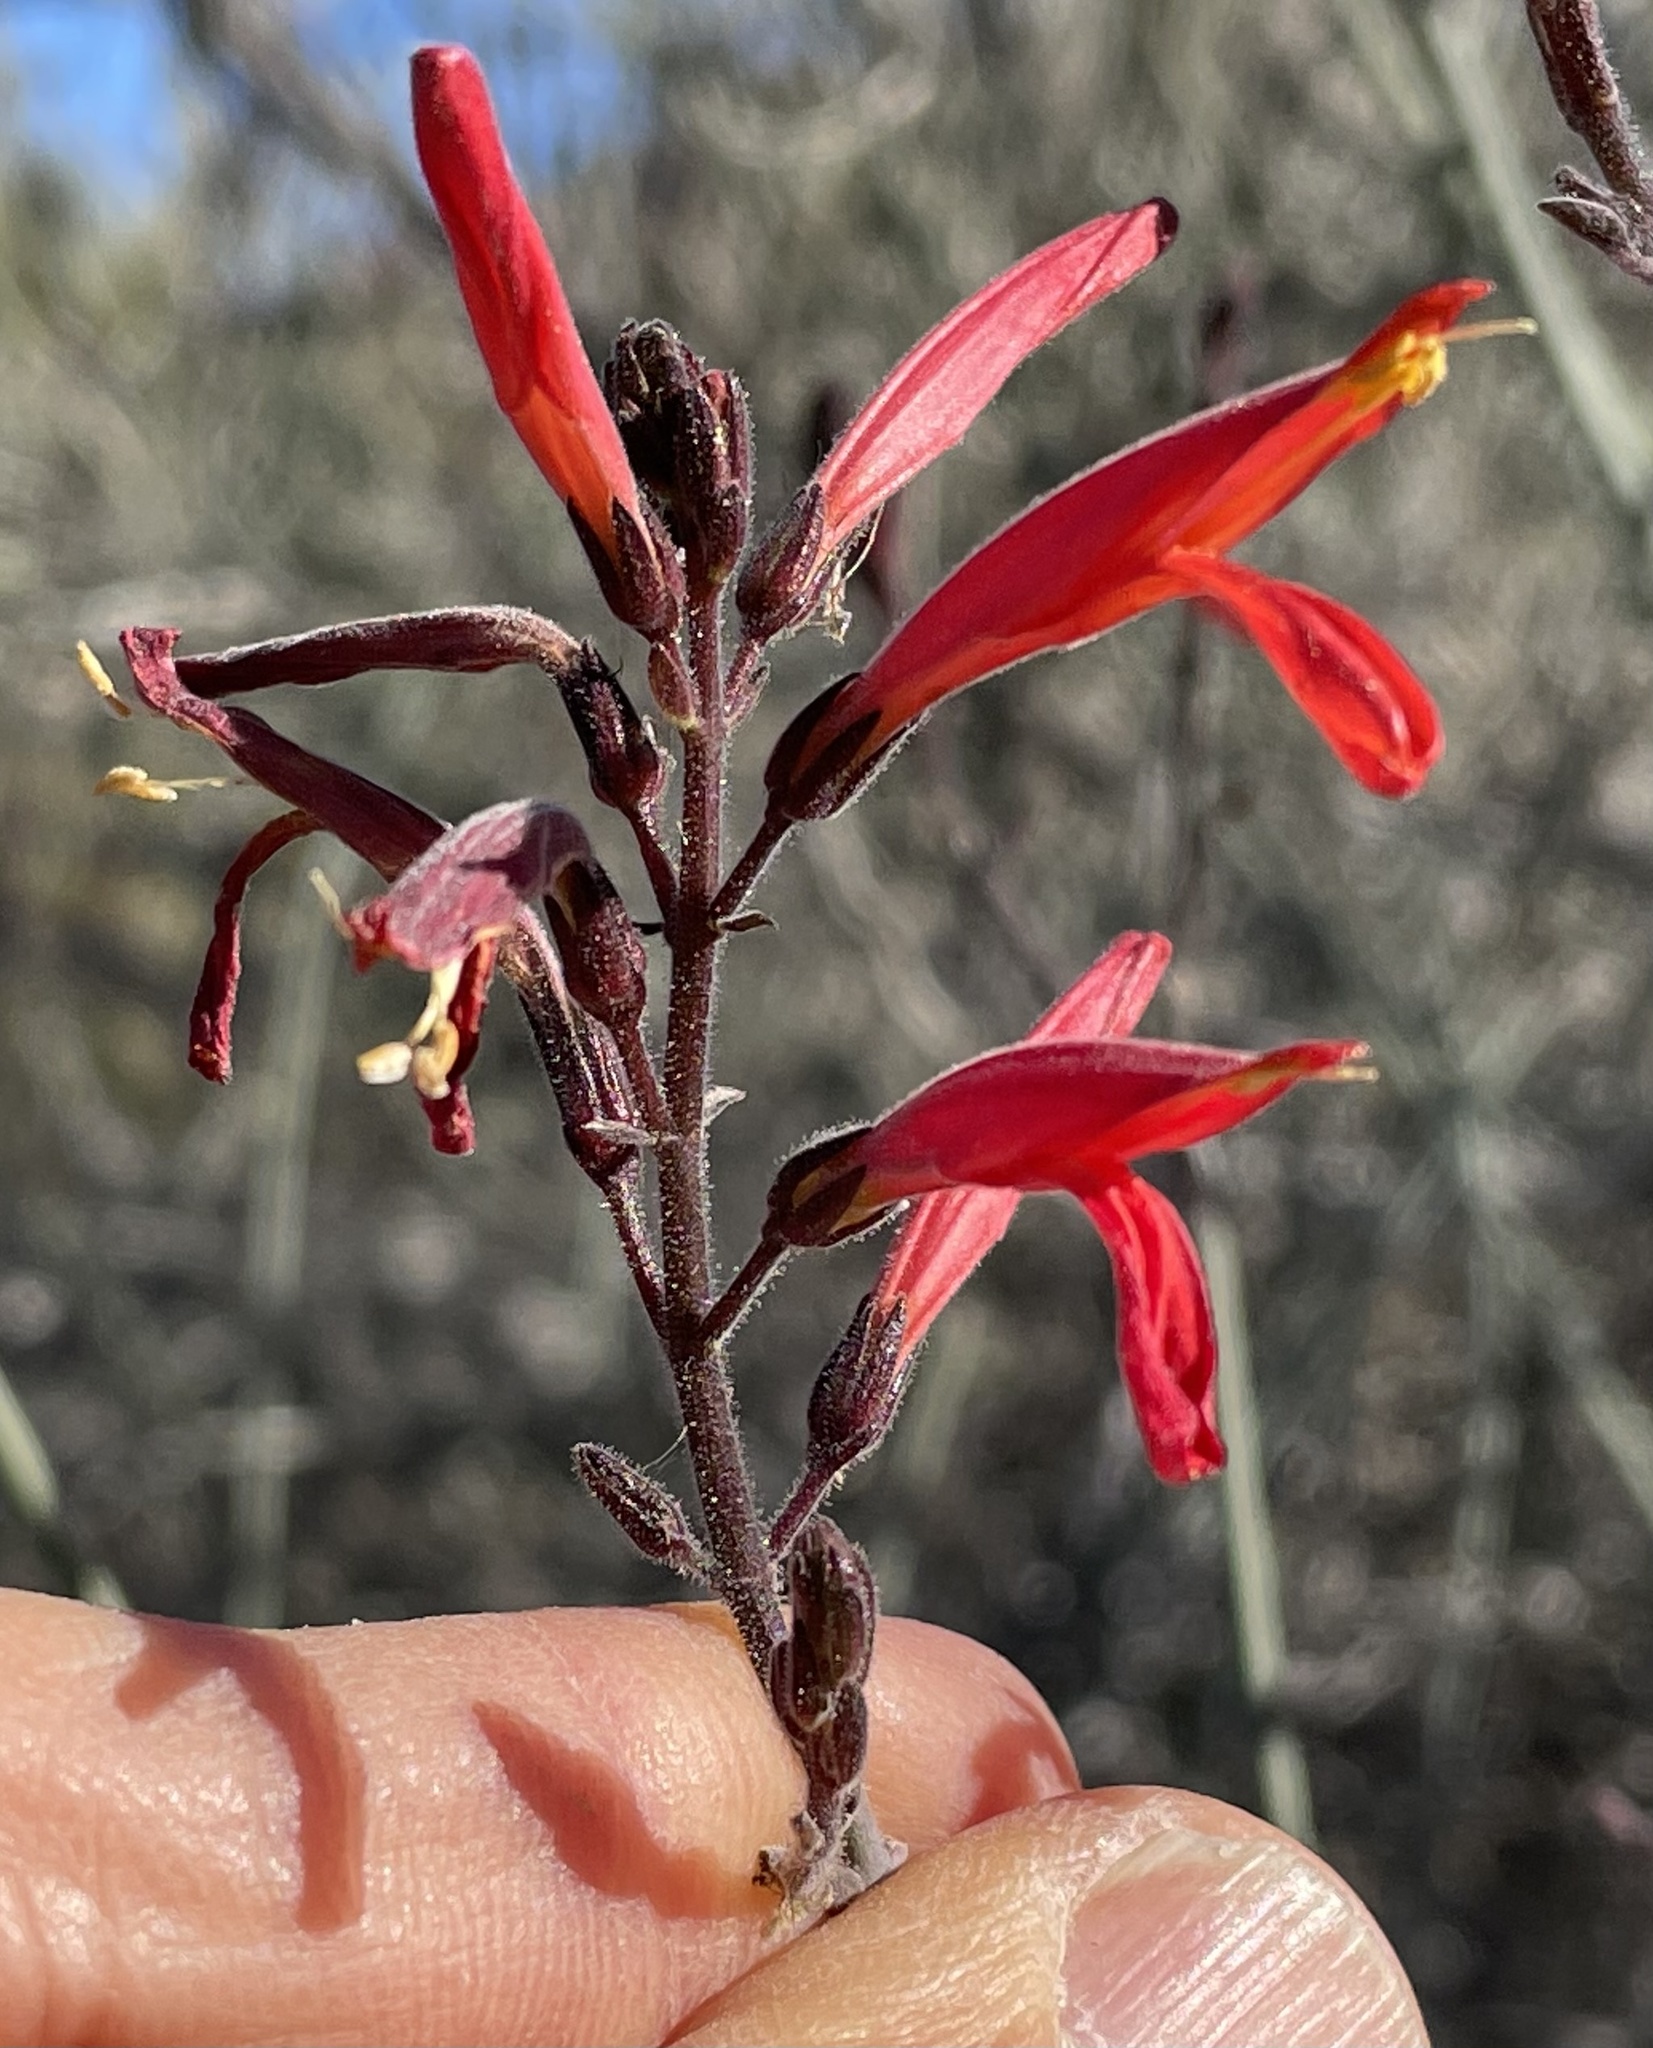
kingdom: Plantae
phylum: Tracheophyta
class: Magnoliopsida
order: Lamiales
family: Acanthaceae
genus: Justicia
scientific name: Justicia californica
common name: Chuparosa-honeysuckle
